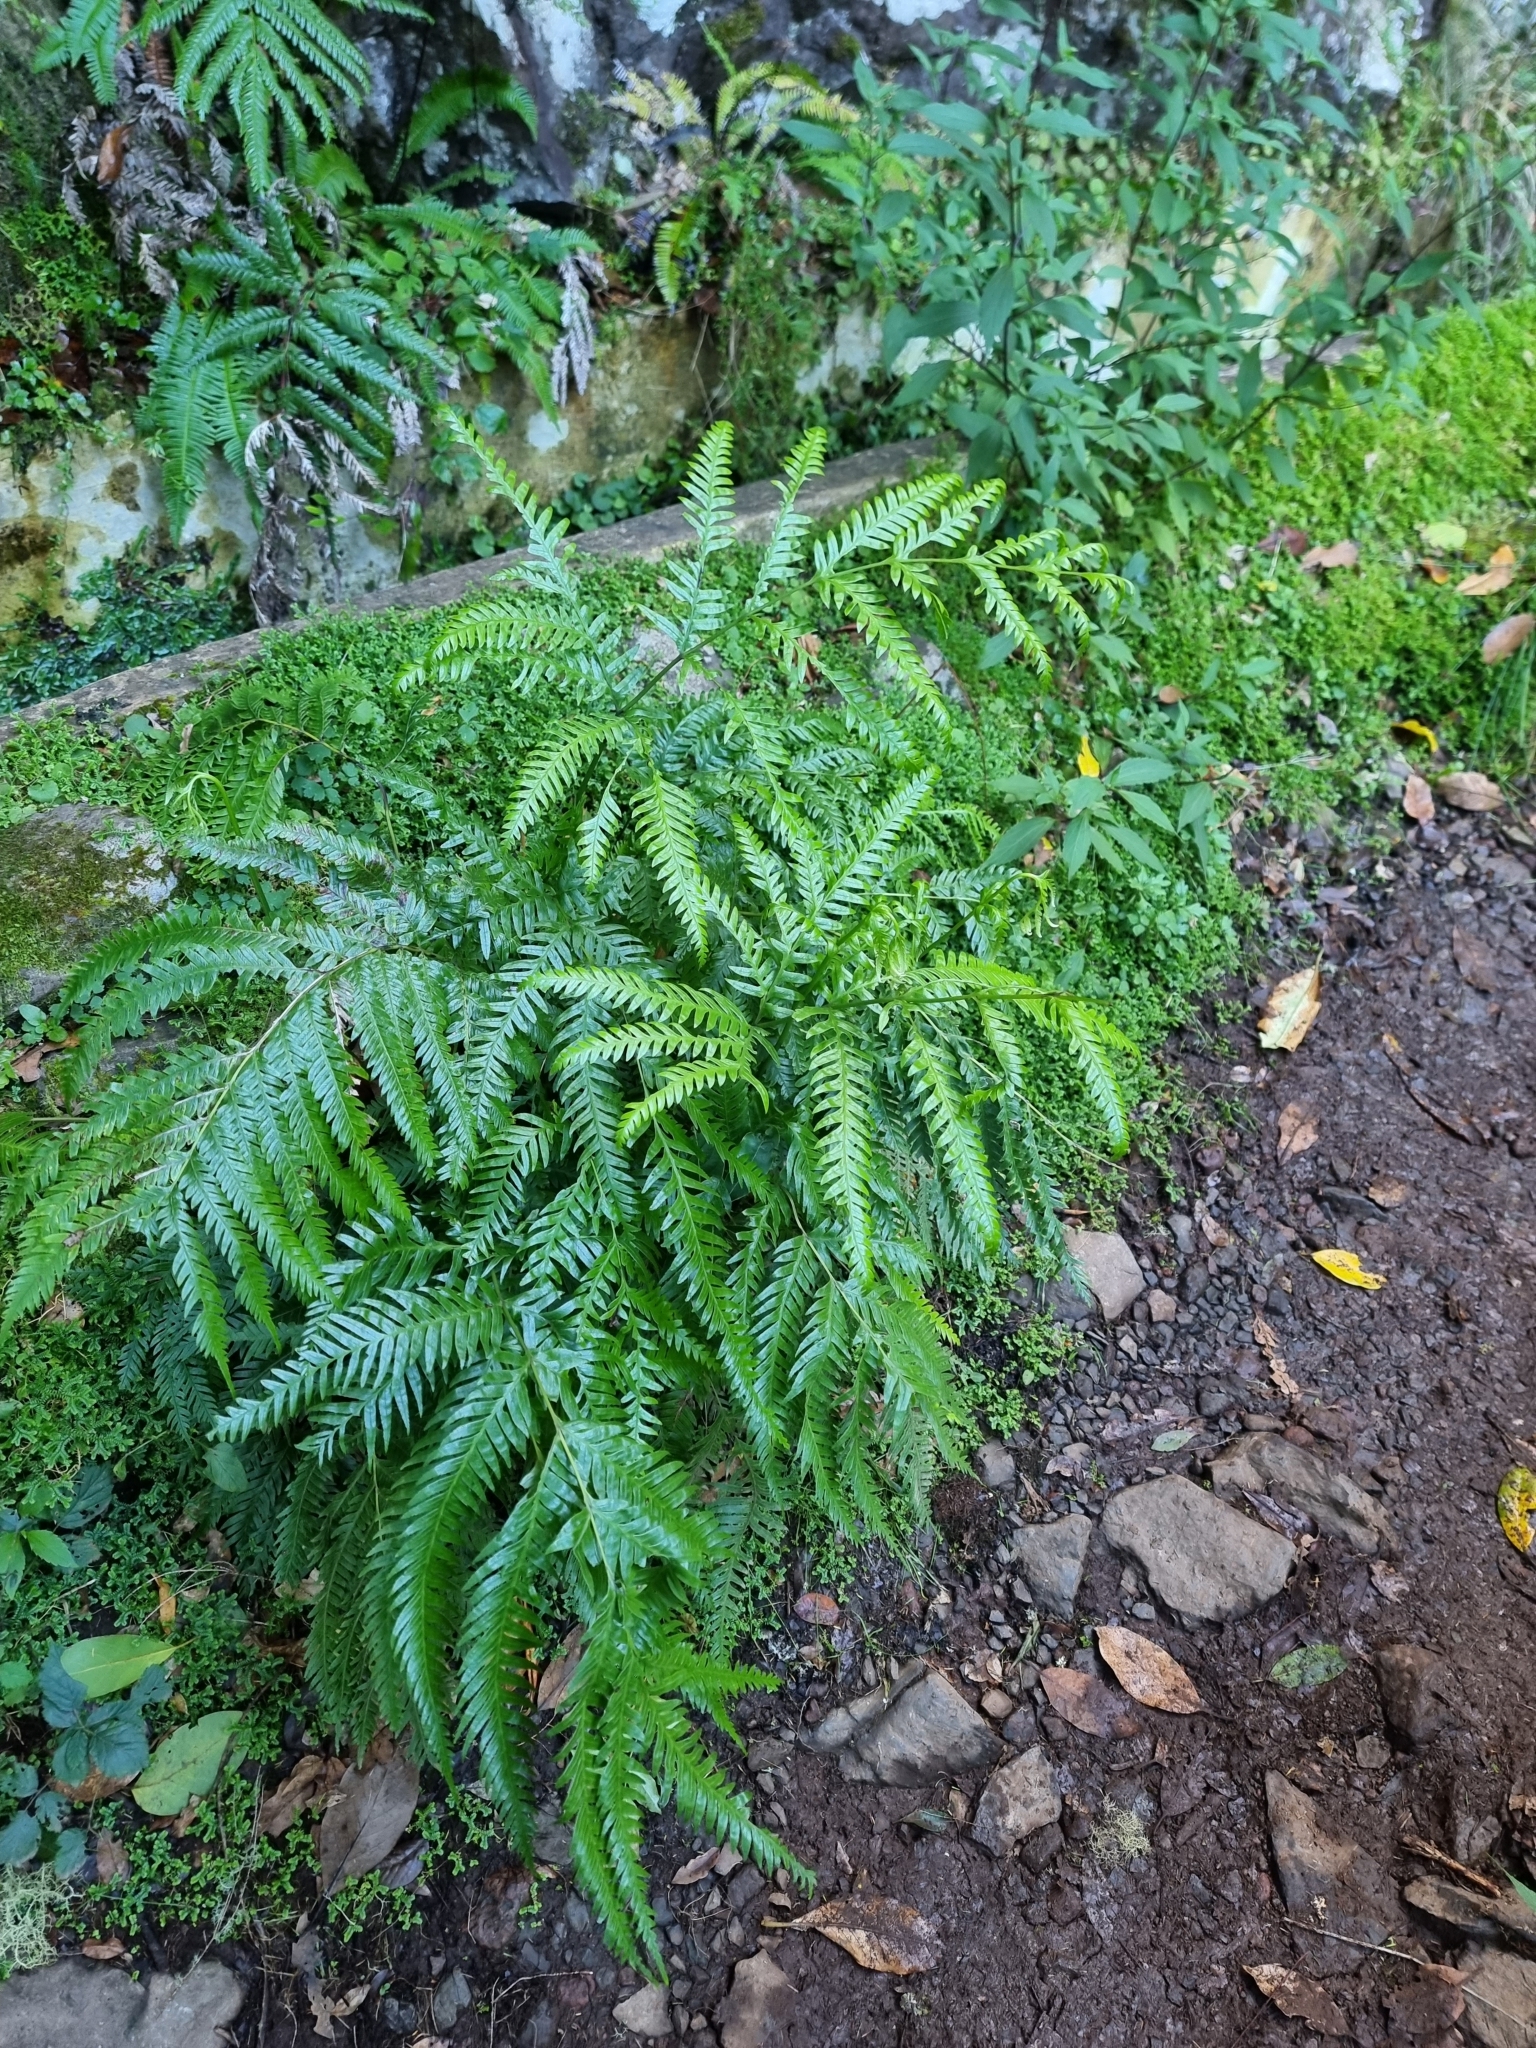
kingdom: Plantae
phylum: Tracheophyta
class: Polypodiopsida
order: Polypodiales
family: Pteridaceae
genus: Pteris
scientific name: Pteris incompleta
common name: Laurisilva brake
